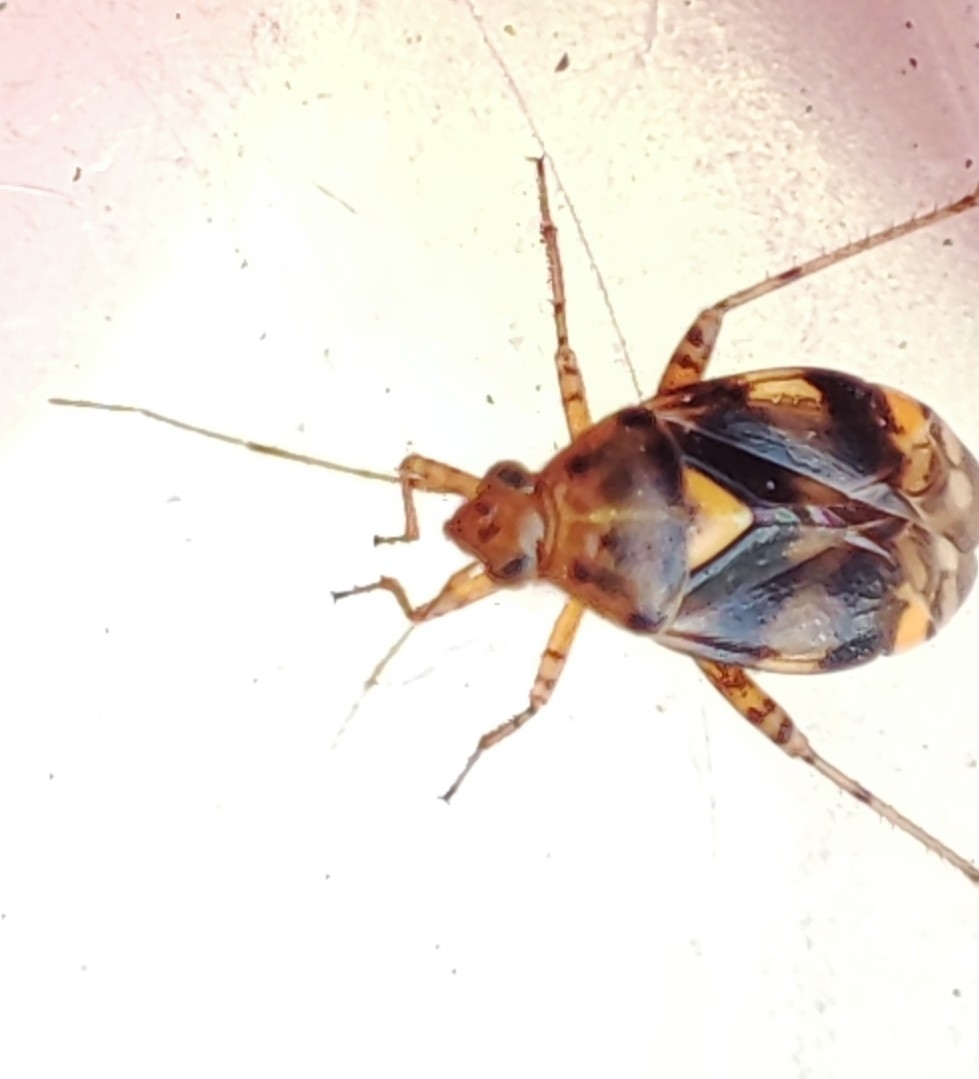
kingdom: Animalia
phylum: Arthropoda
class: Insecta
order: Hemiptera
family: Miridae
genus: Liocoris
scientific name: Liocoris tripustulatus
